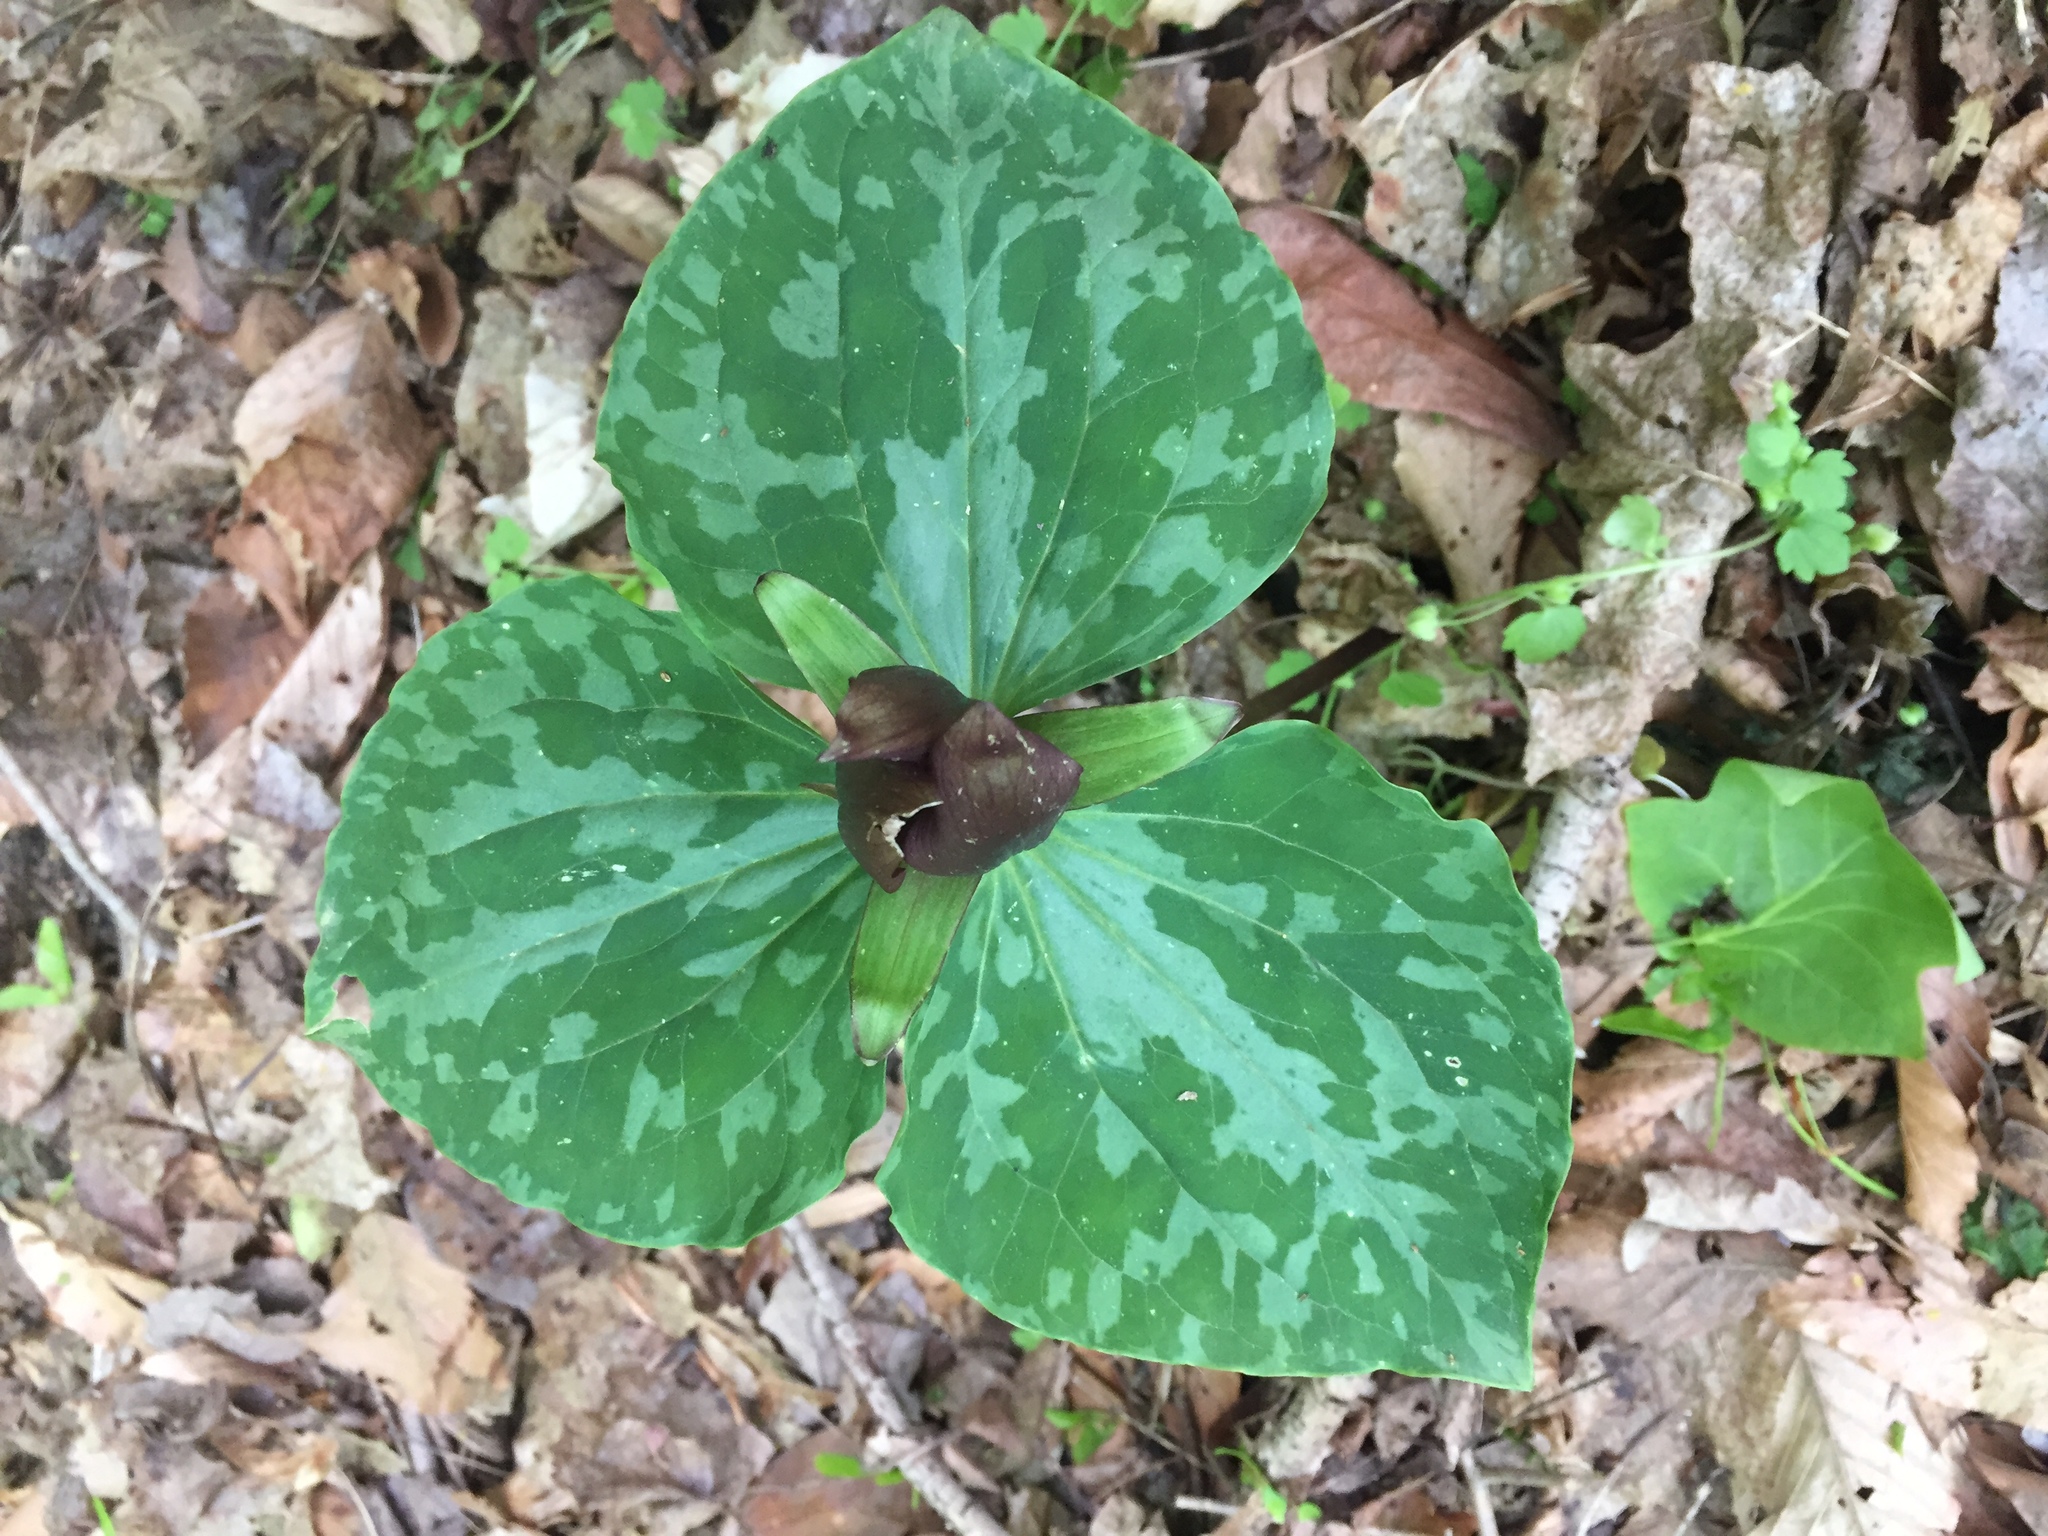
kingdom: Plantae
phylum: Tracheophyta
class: Liliopsida
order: Liliales
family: Melanthiaceae
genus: Trillium
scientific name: Trillium cuneatum
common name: Cuneate trillium
